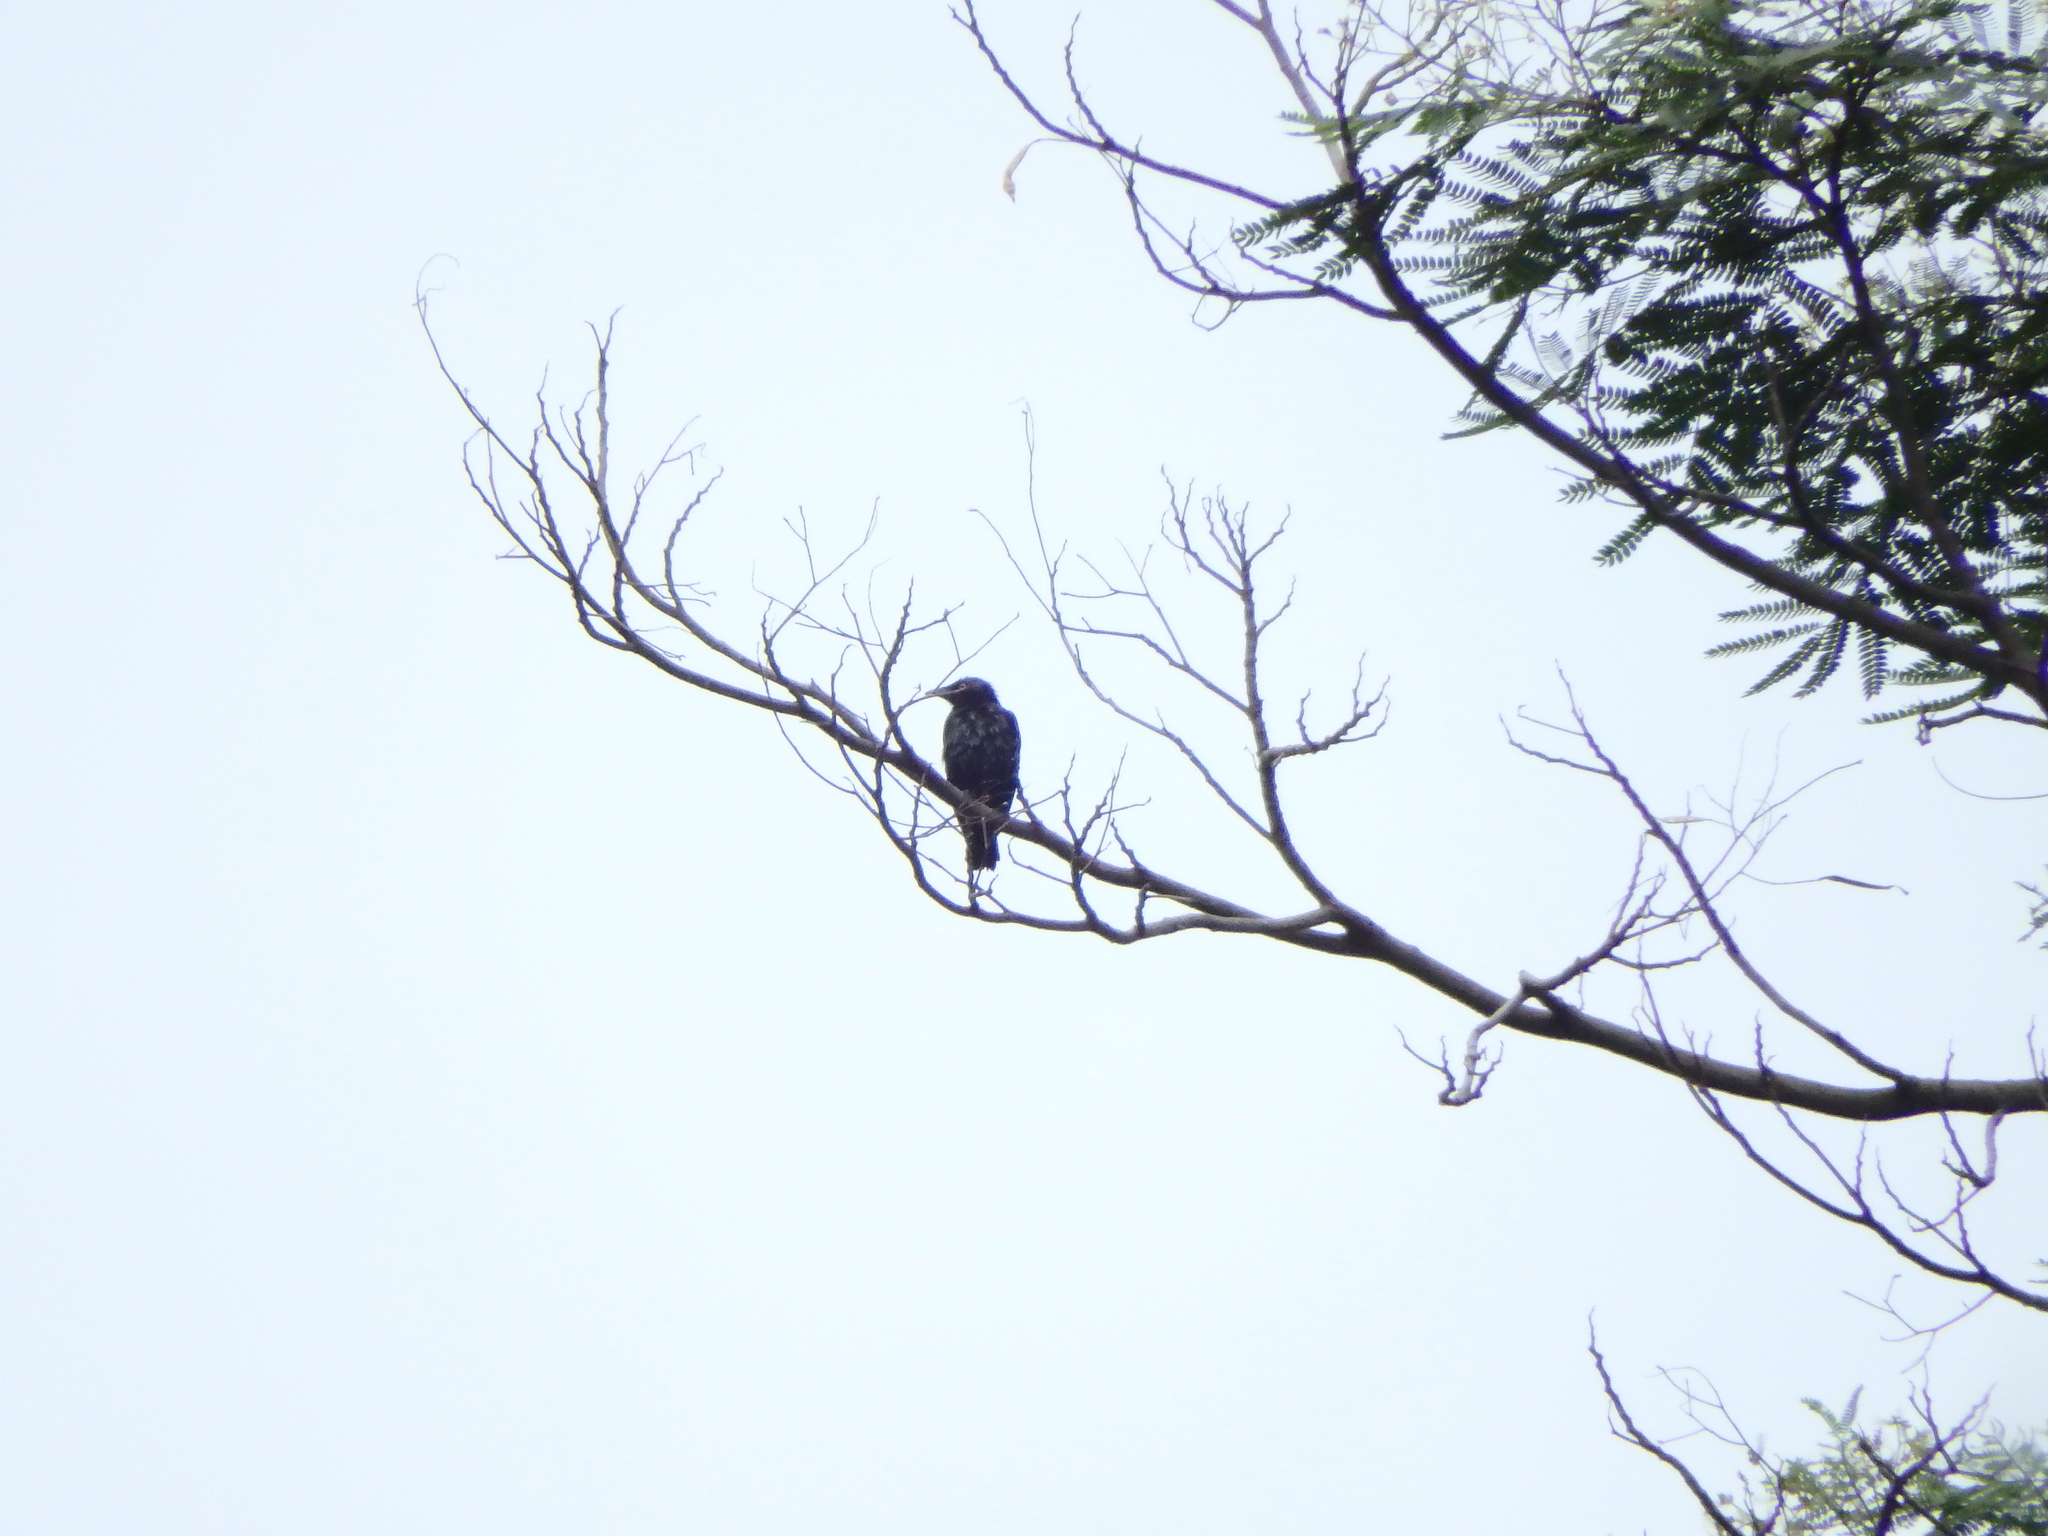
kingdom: Animalia
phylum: Chordata
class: Aves
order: Passeriformes
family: Sturnidae
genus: Aplonis
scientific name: Aplonis panayensis
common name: Asian glossy starling
